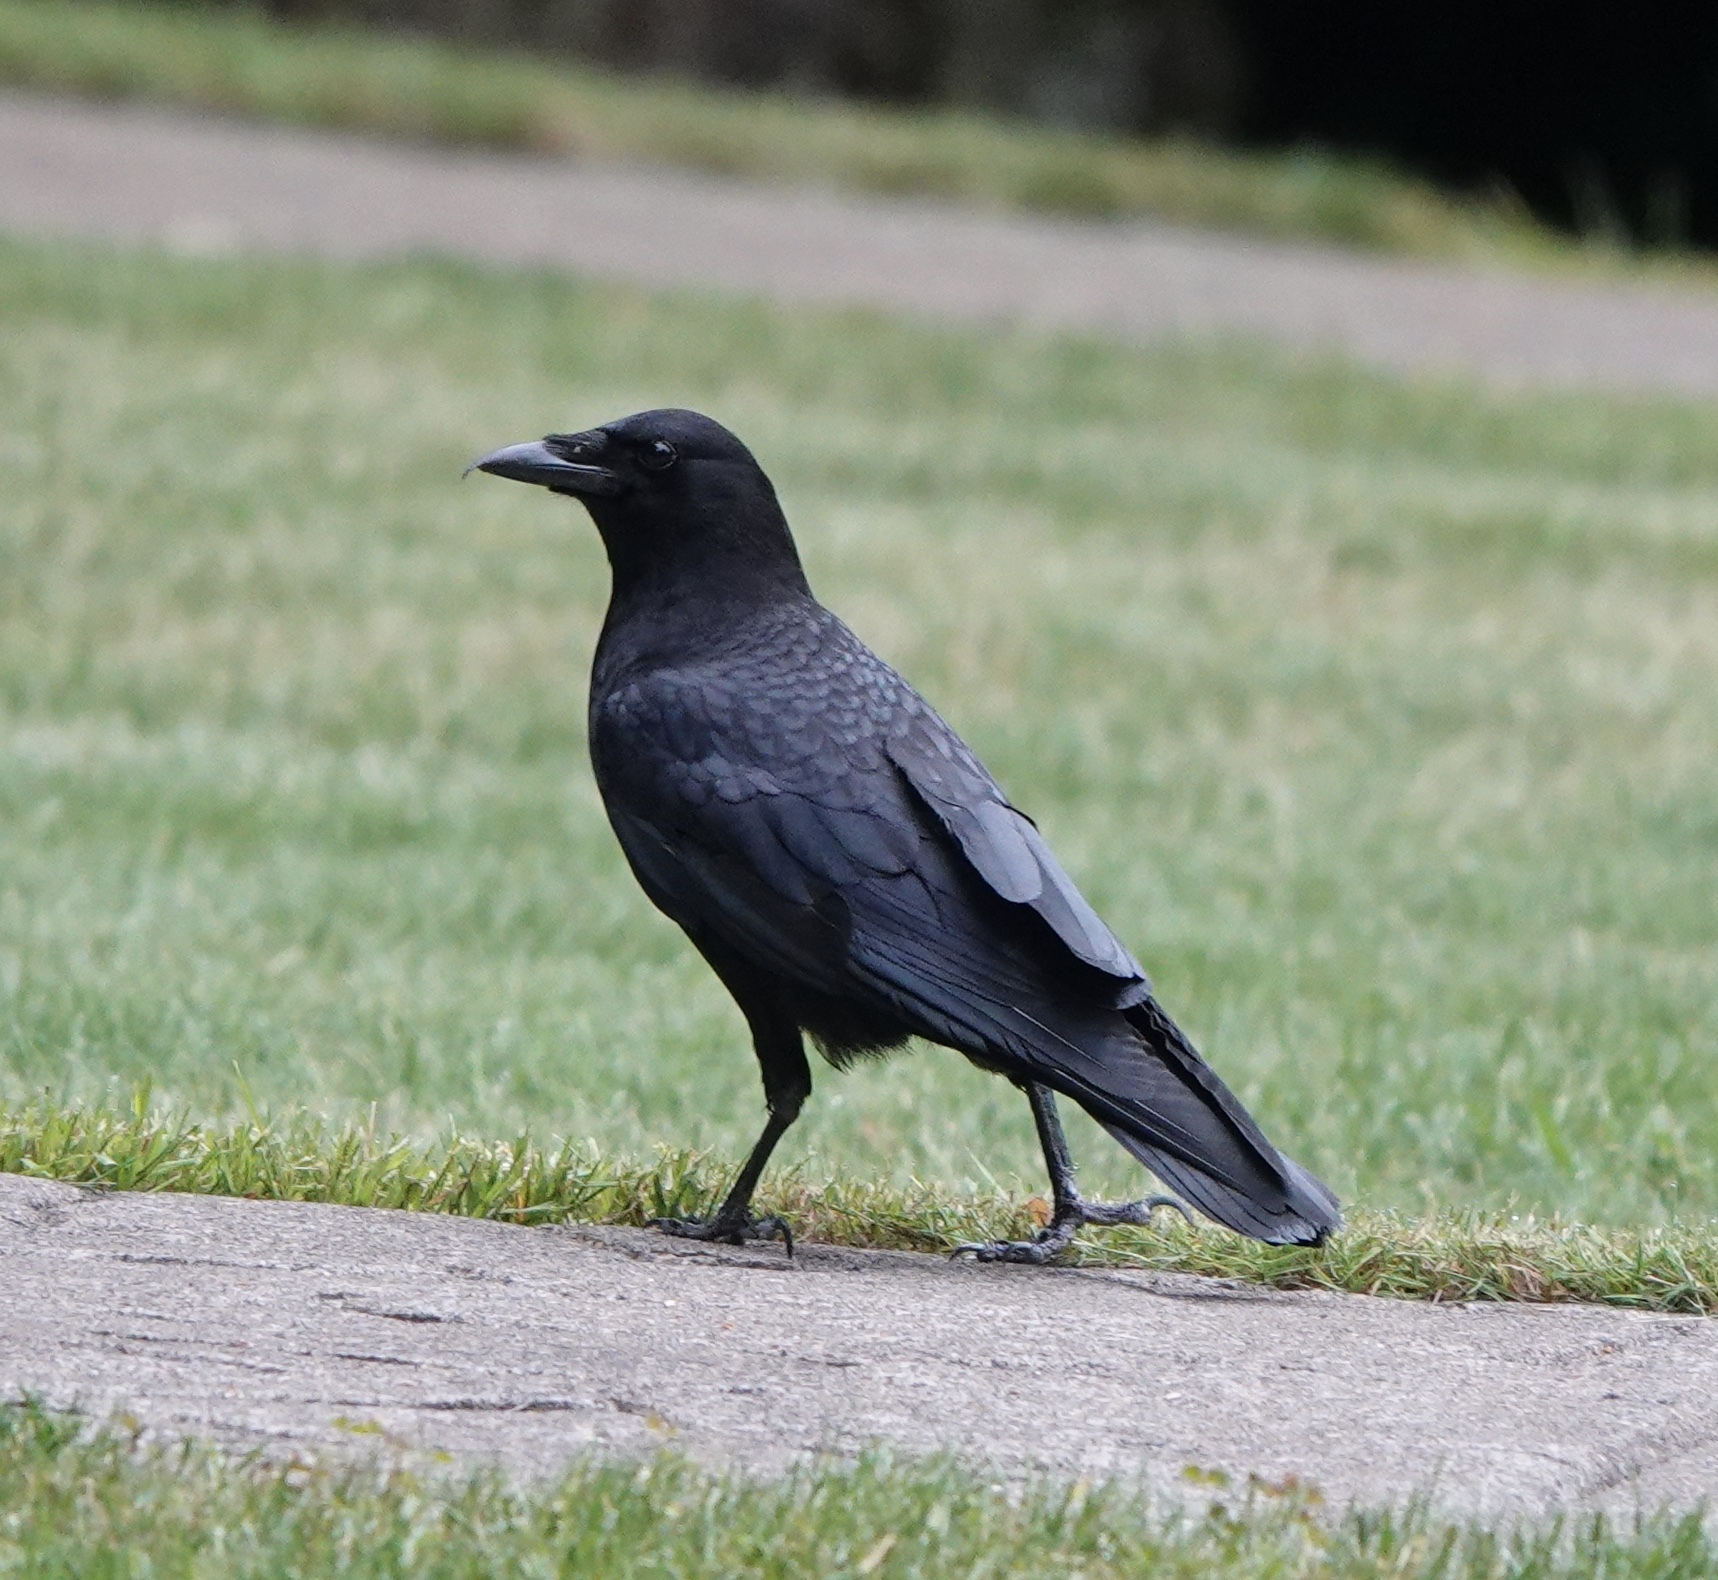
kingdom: Animalia
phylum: Chordata
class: Aves
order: Passeriformes
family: Corvidae
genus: Corvus
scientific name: Corvus brachyrhynchos
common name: American crow
